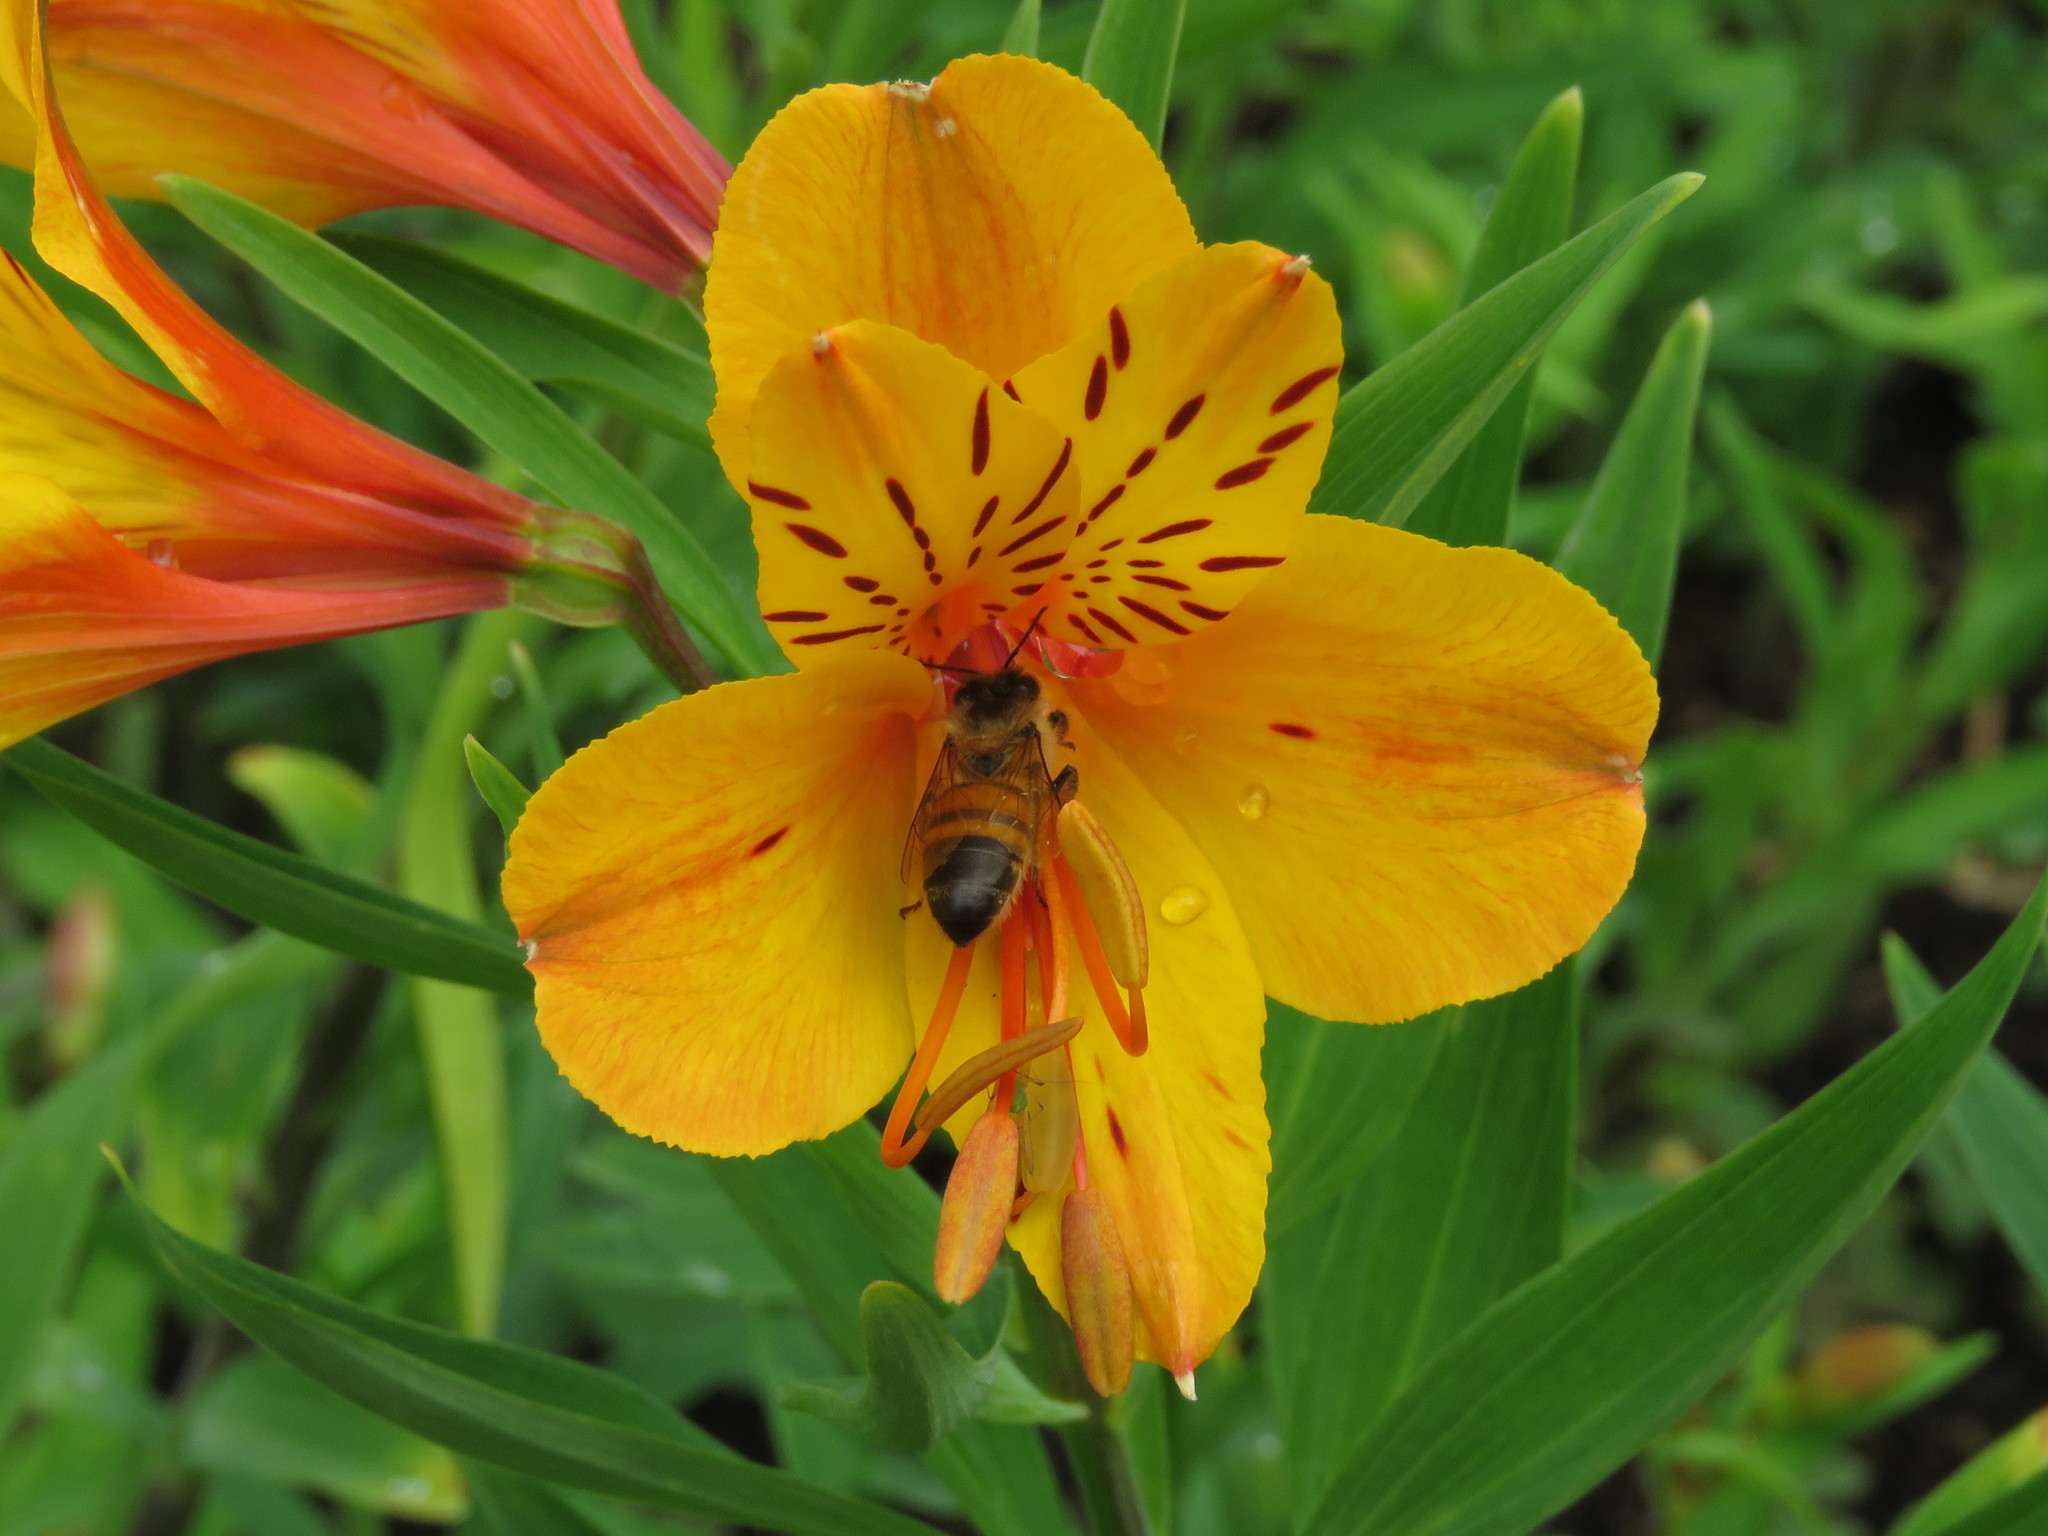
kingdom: Animalia
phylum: Arthropoda
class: Insecta
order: Hymenoptera
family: Apidae
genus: Apis
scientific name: Apis mellifera
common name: Honey bee
